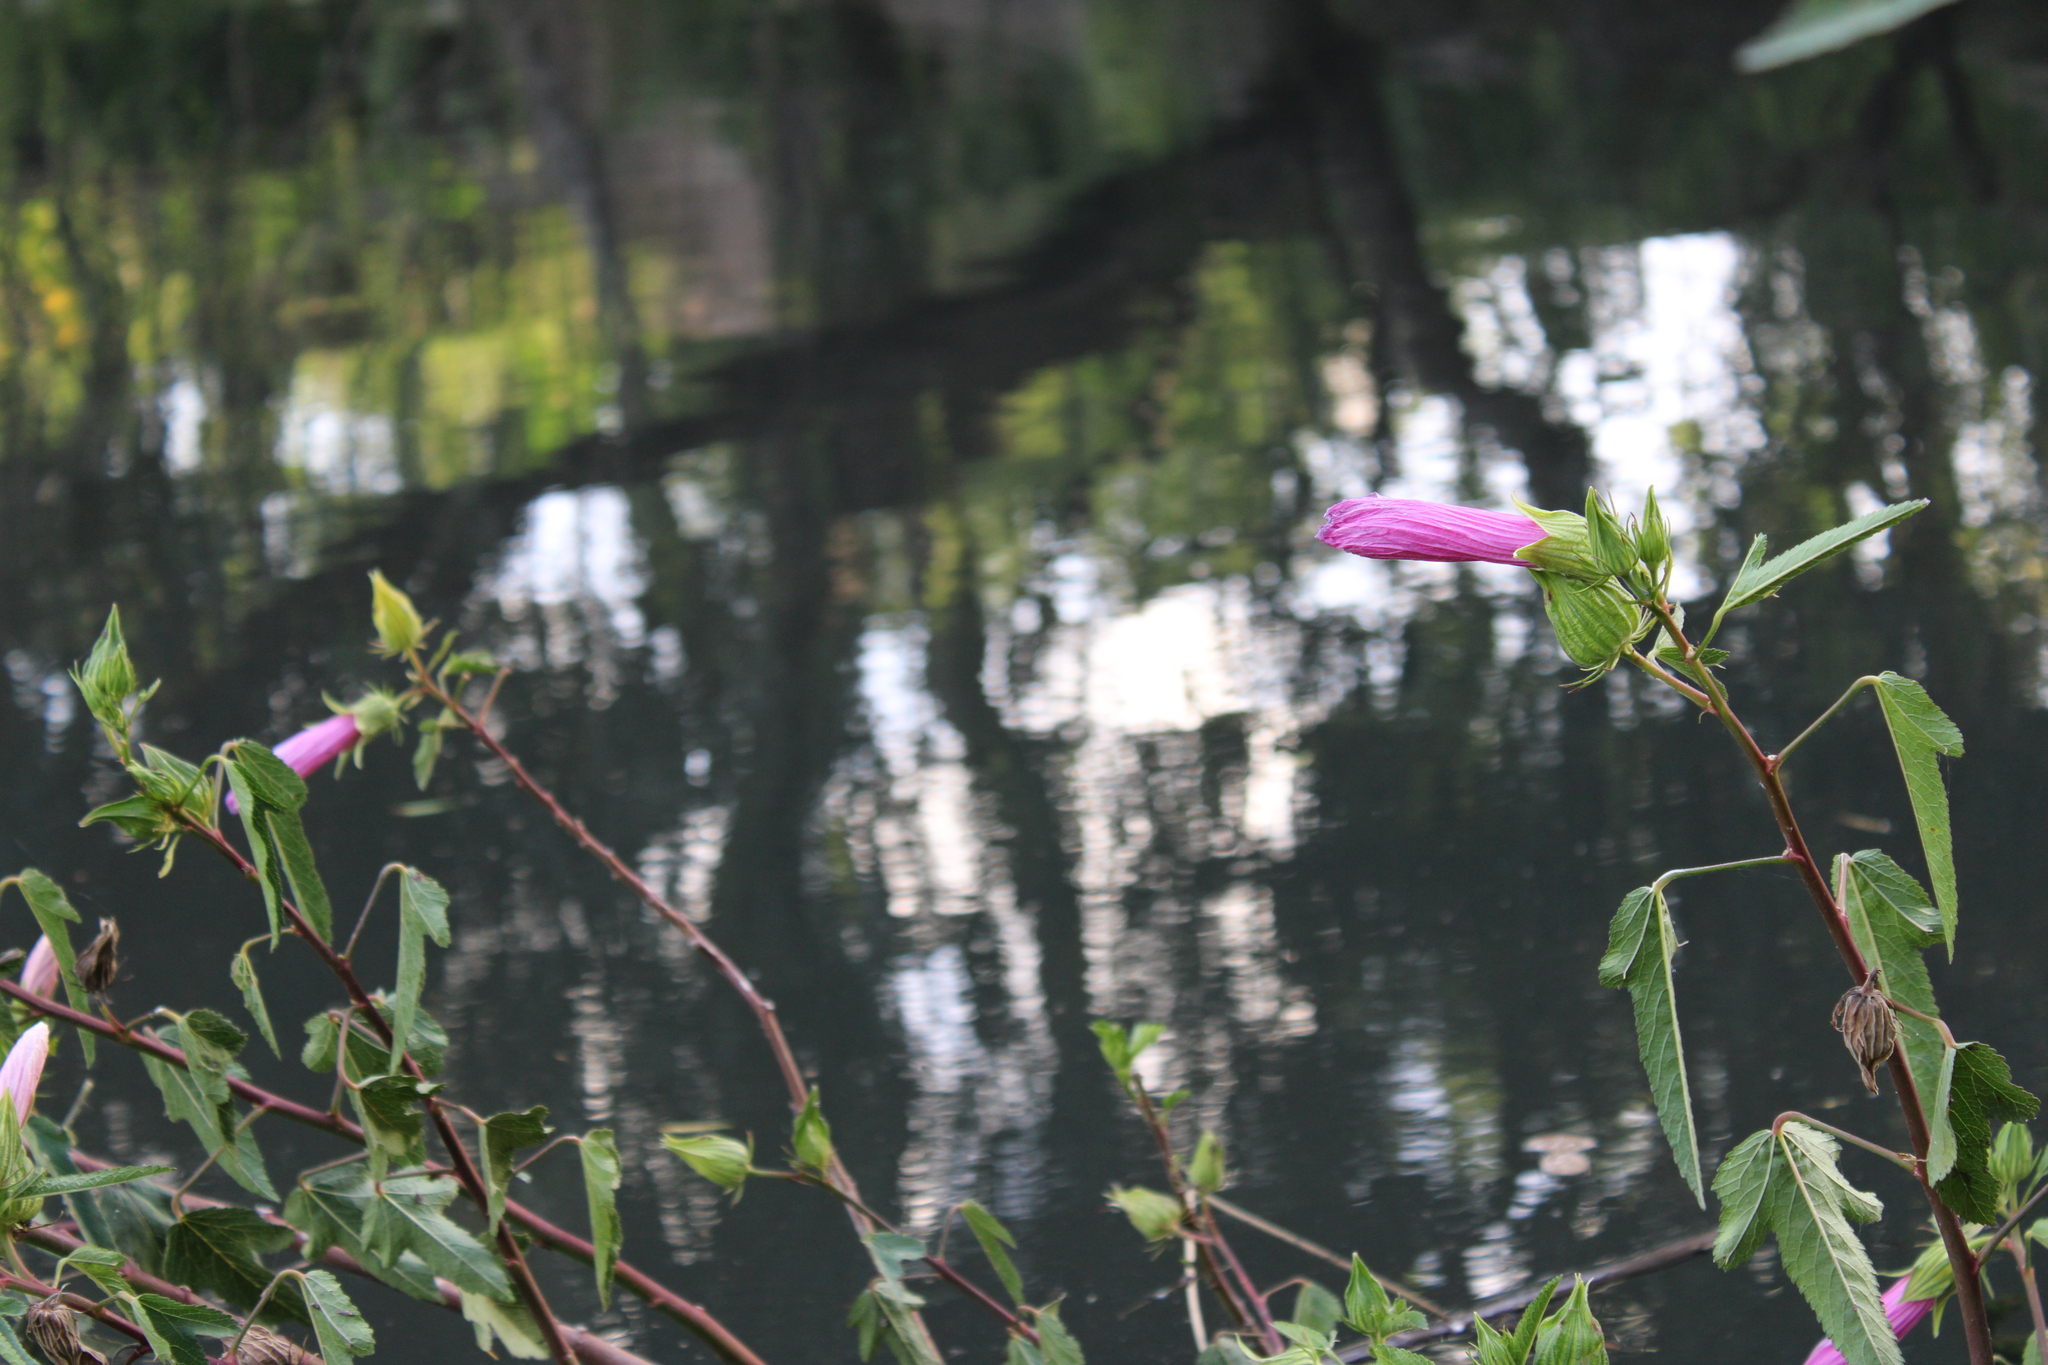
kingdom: Plantae
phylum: Tracheophyta
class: Magnoliopsida
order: Malvales
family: Malvaceae
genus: Hibiscus
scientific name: Hibiscus striatus
